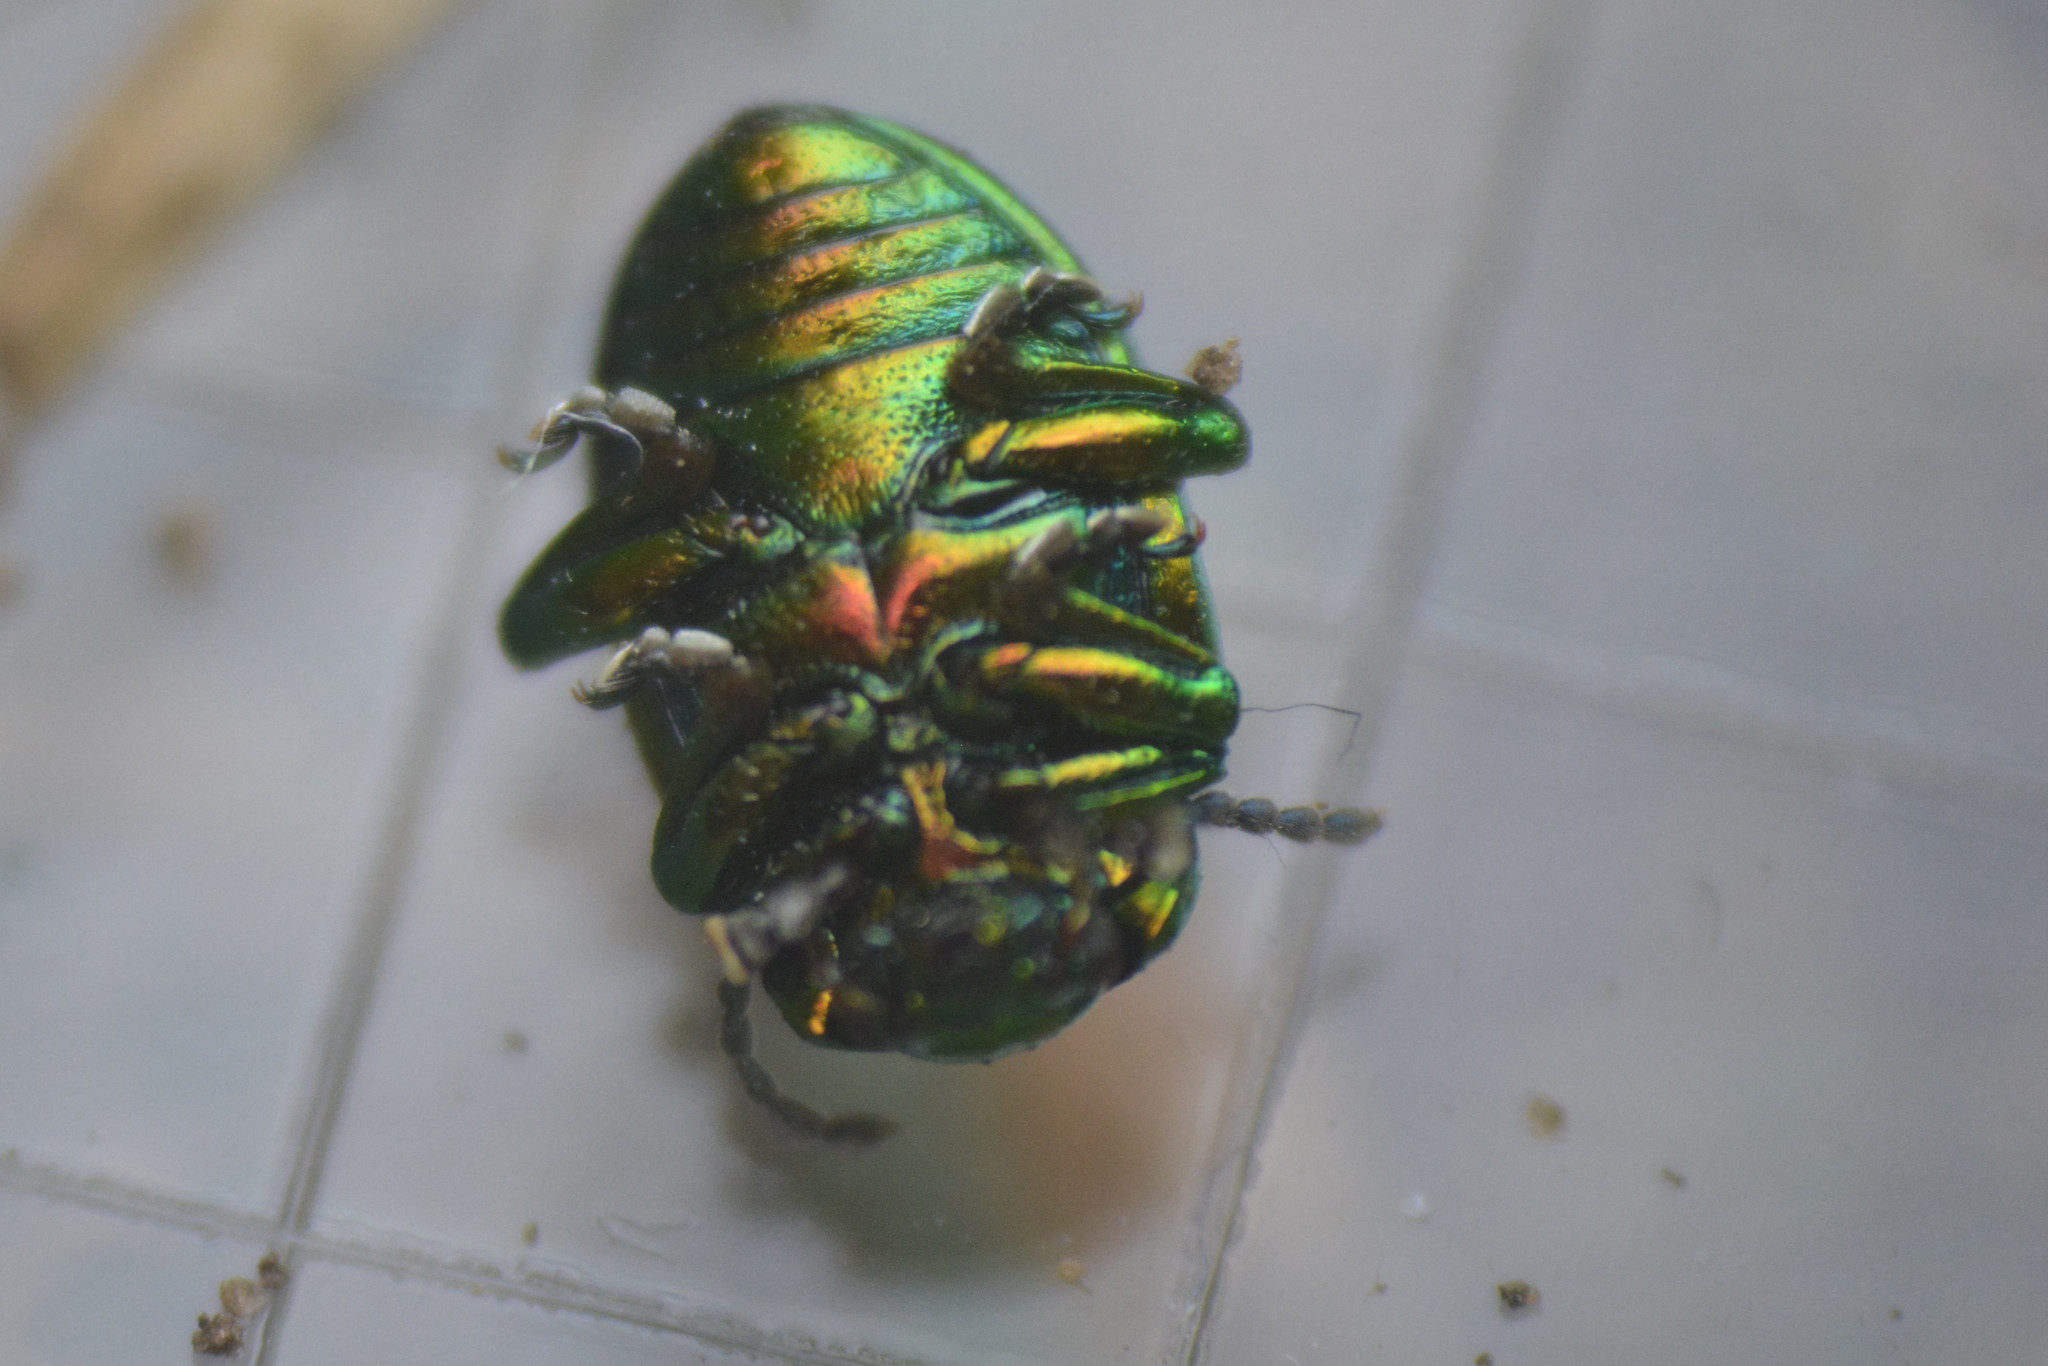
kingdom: Animalia
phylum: Arthropoda
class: Insecta
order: Coleoptera
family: Chrysomelidae
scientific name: Chrysomelidae
